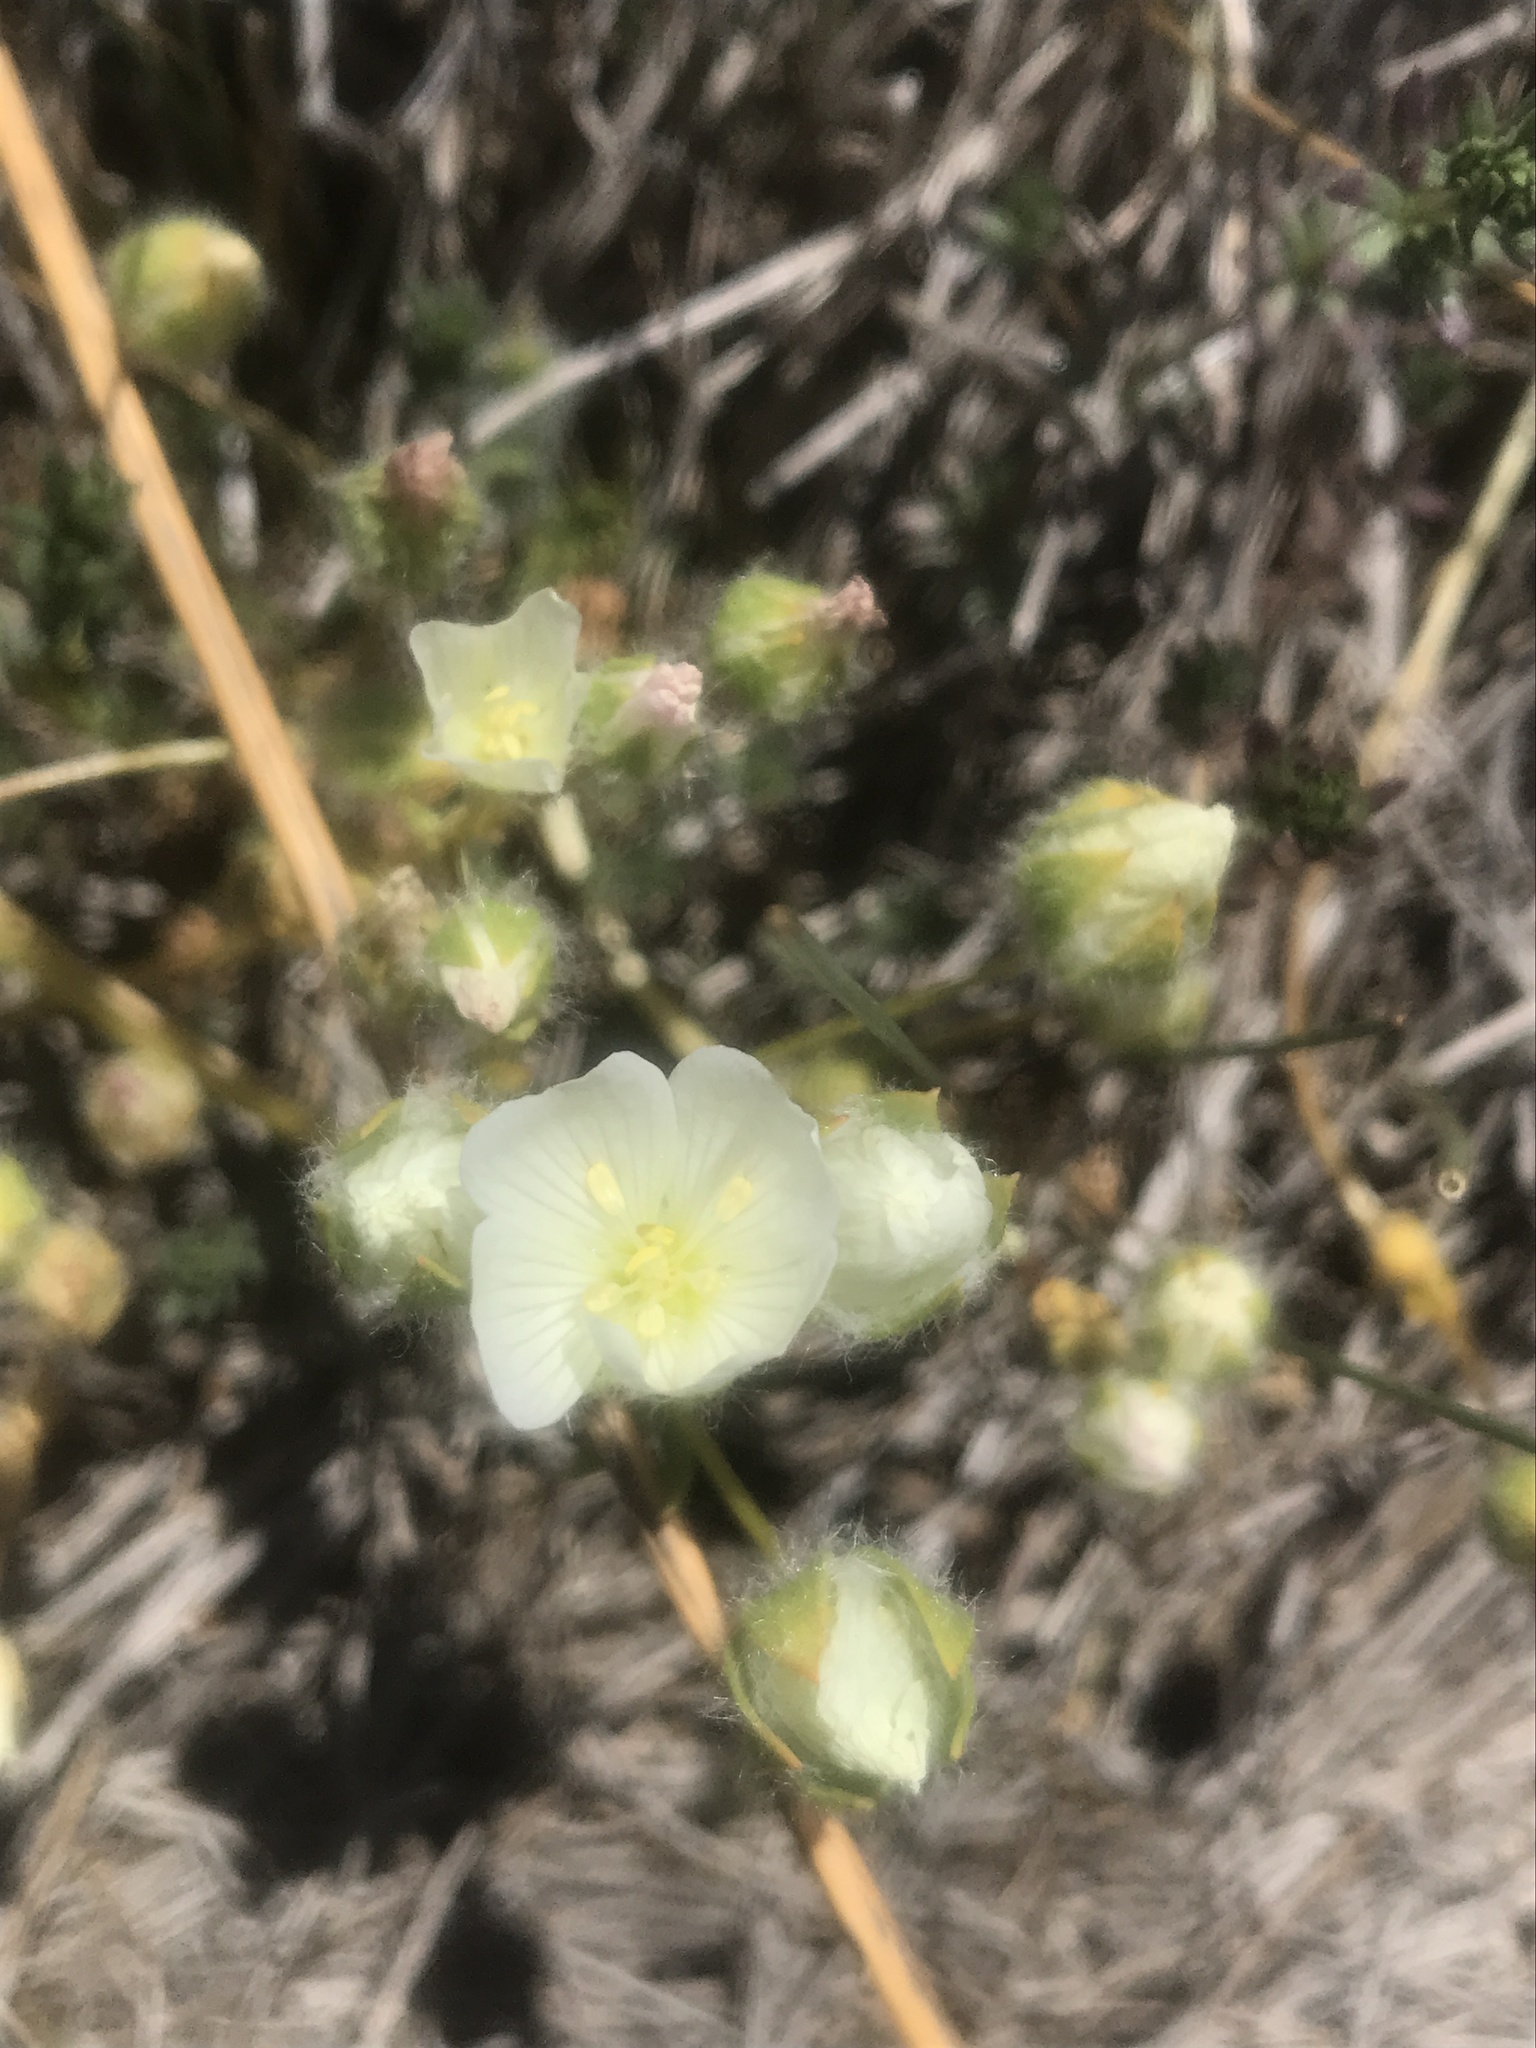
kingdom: Plantae
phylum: Tracheophyta
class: Magnoliopsida
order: Brassicales
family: Limnanthaceae
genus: Limnanthes
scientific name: Limnanthes alba
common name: Meadowfoam
